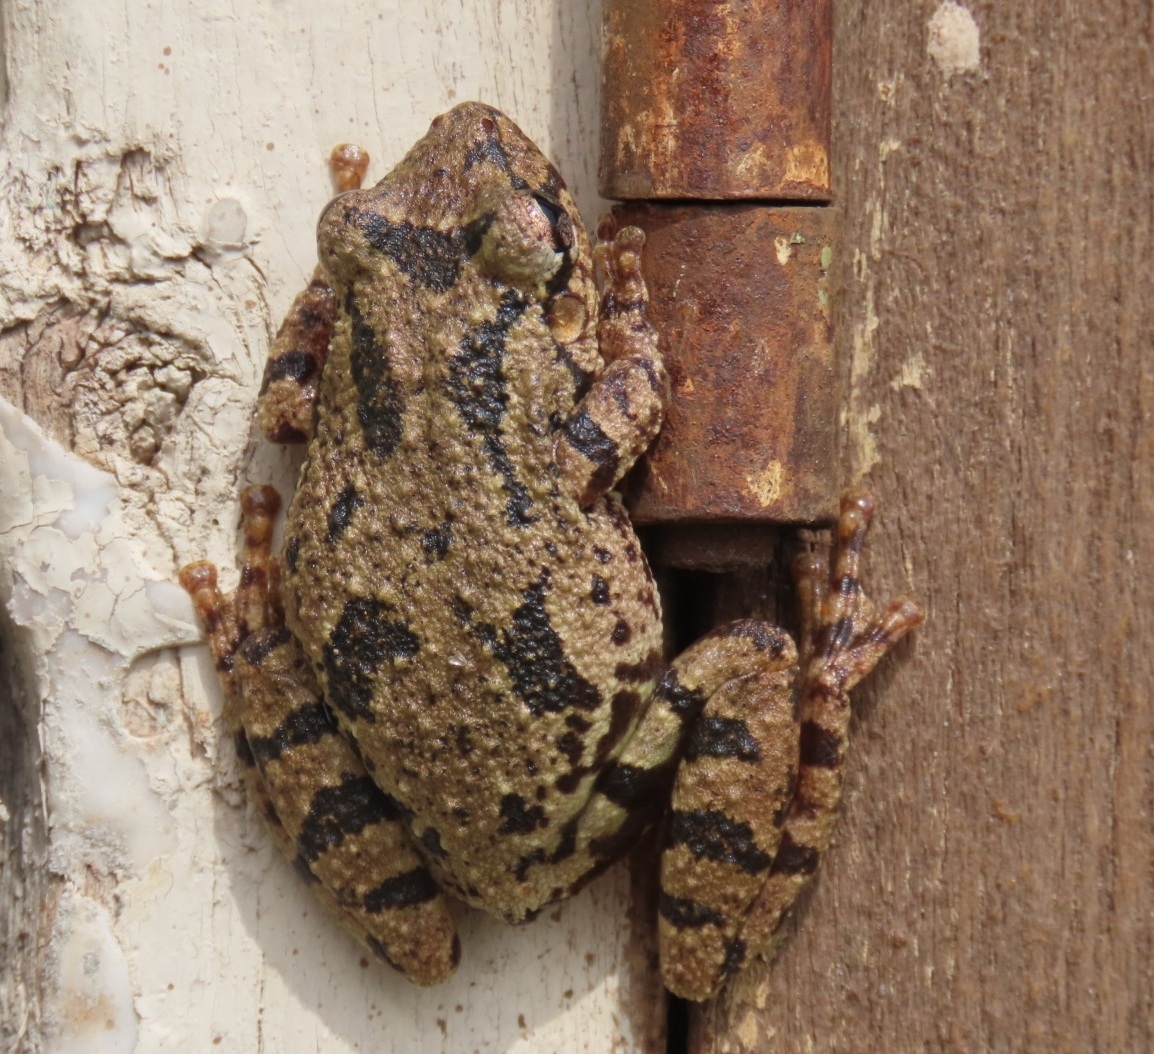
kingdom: Animalia
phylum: Chordata
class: Amphibia
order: Anura
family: Hylidae
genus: Scinax
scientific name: Scinax granulatus
